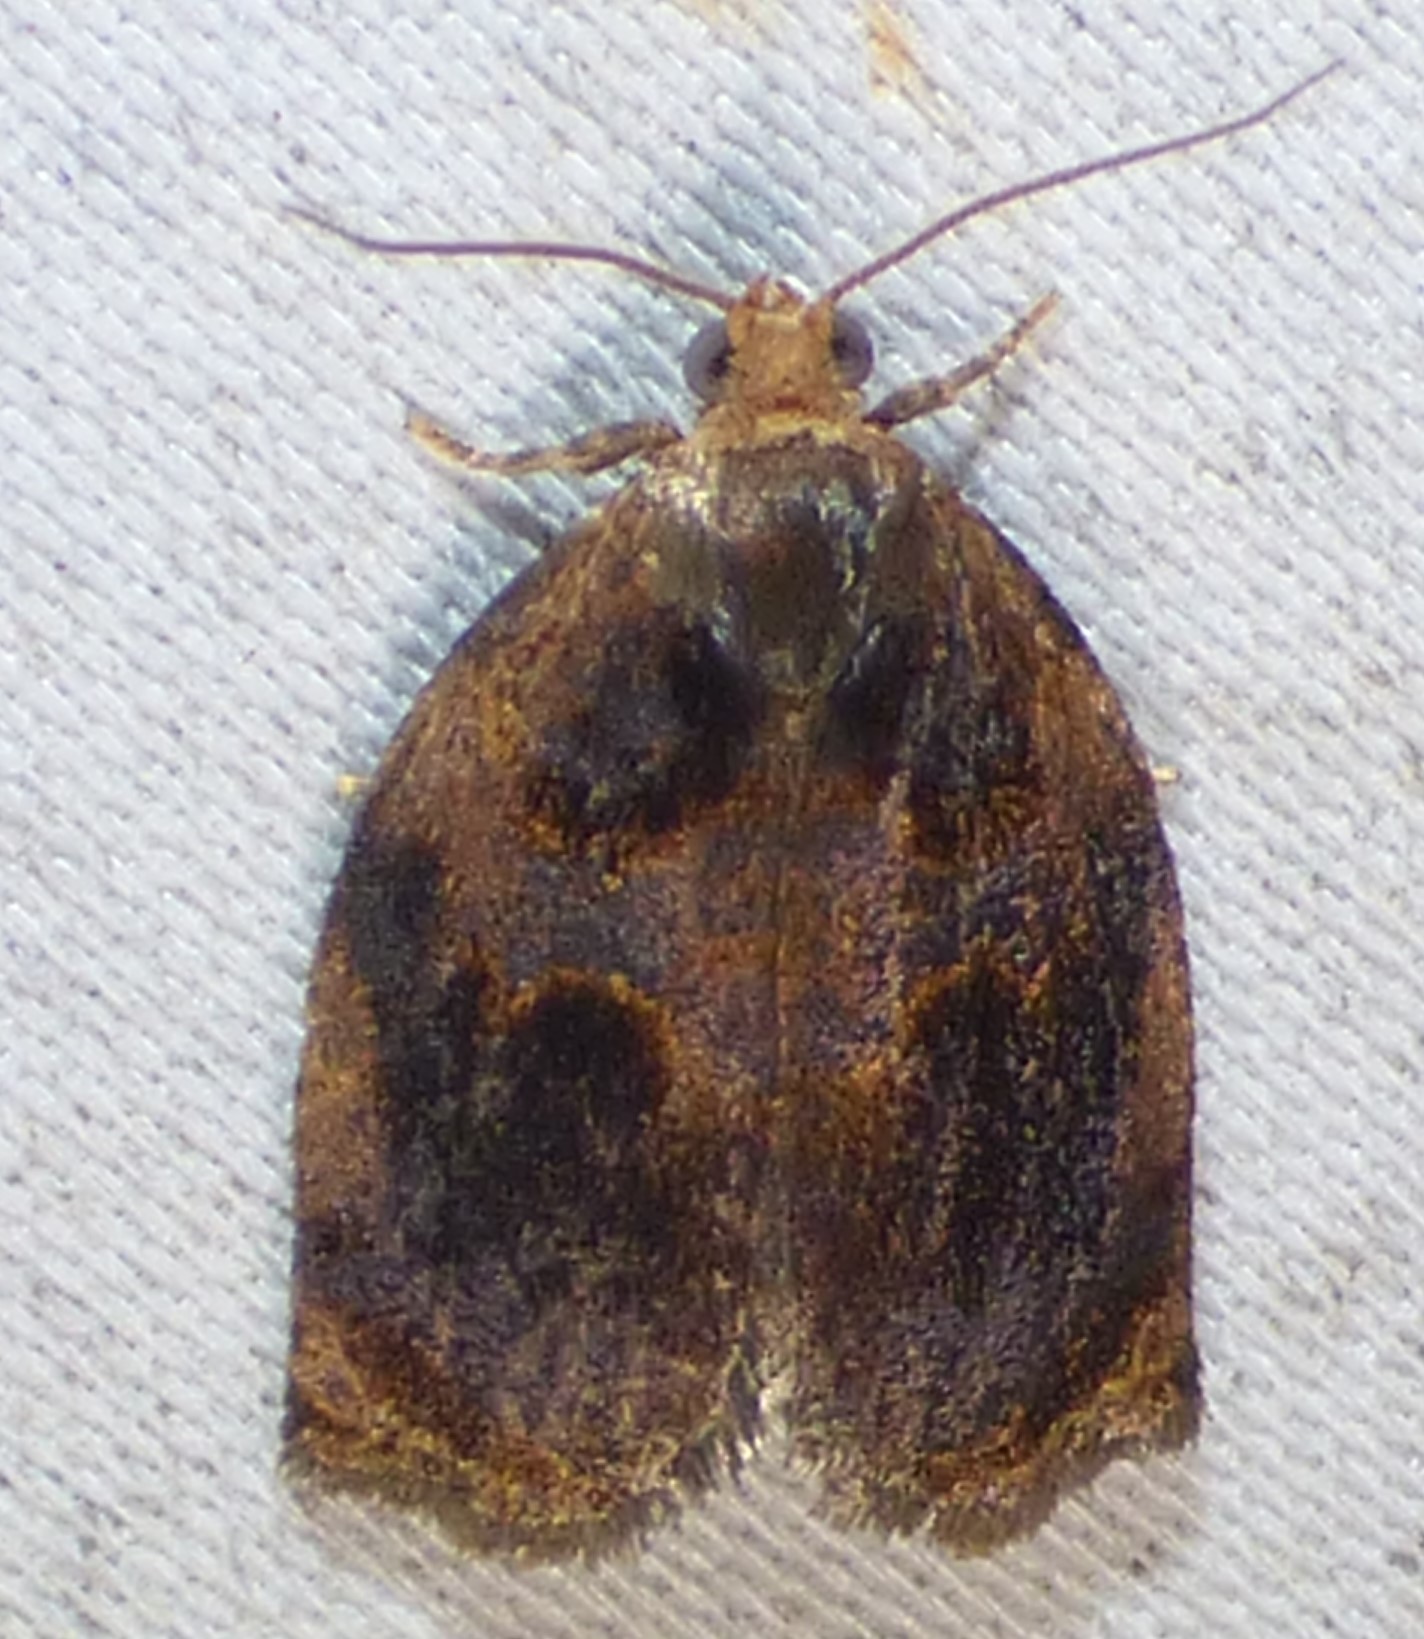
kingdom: Animalia
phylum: Arthropoda
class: Insecta
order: Lepidoptera
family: Tortricidae
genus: Archips
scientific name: Archips infumatana
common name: Smoked leafroller moth
